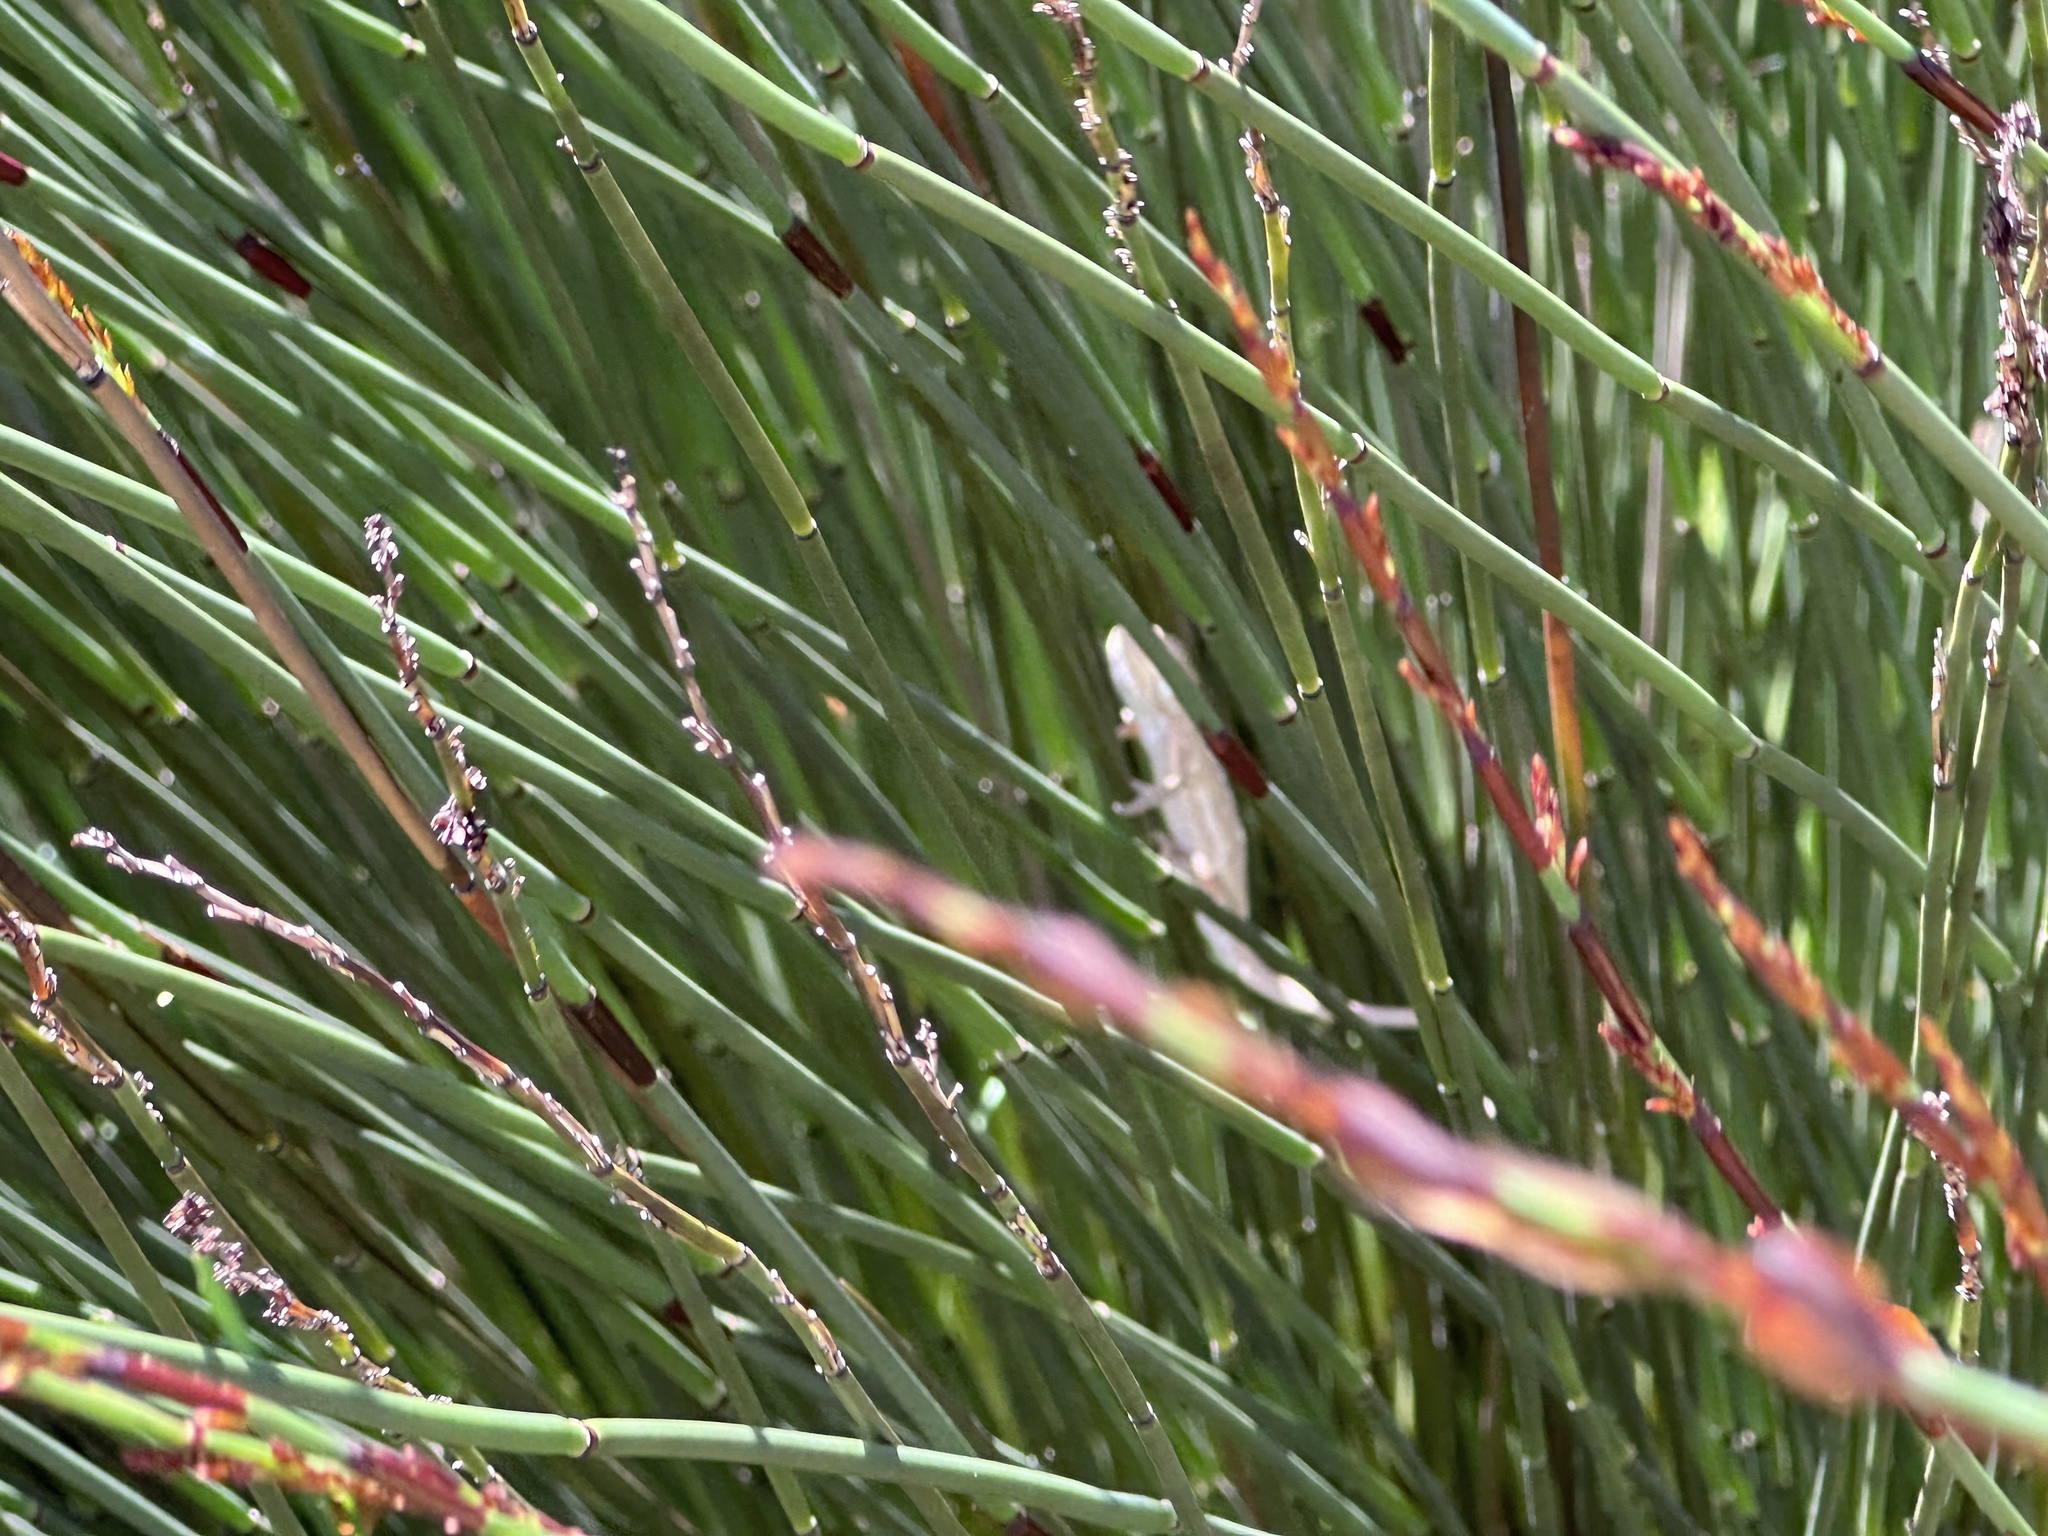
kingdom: Animalia
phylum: Chordata
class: Squamata
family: Chamaeleonidae
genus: Bradypodion
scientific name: Bradypodion pumilum
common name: Cape dwarf chameleon
